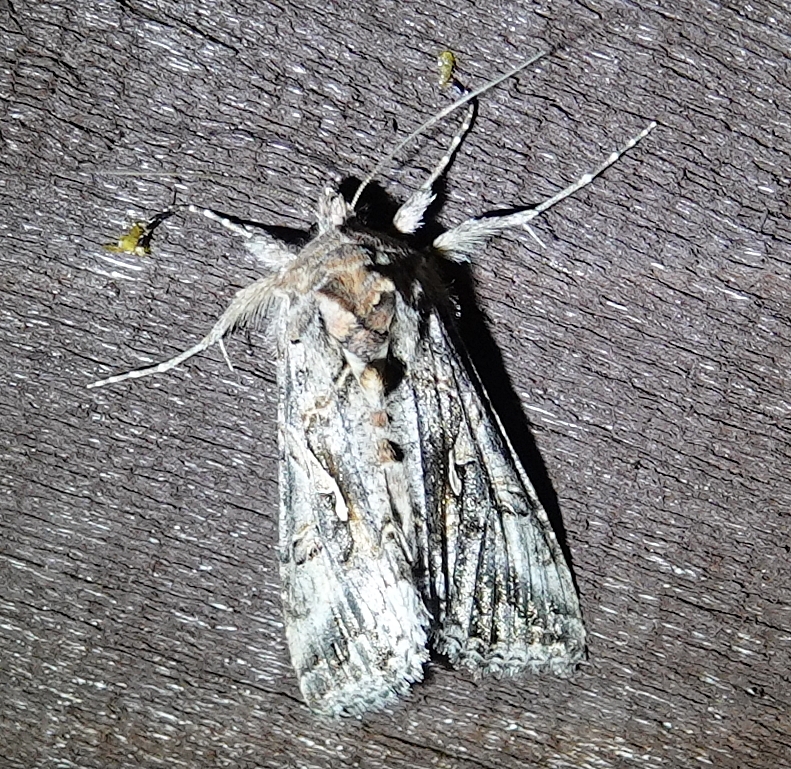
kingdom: Animalia
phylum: Arthropoda
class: Insecta
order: Lepidoptera
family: Noctuidae
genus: Autographa
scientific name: Autographa californica
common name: Alfalfa looper
